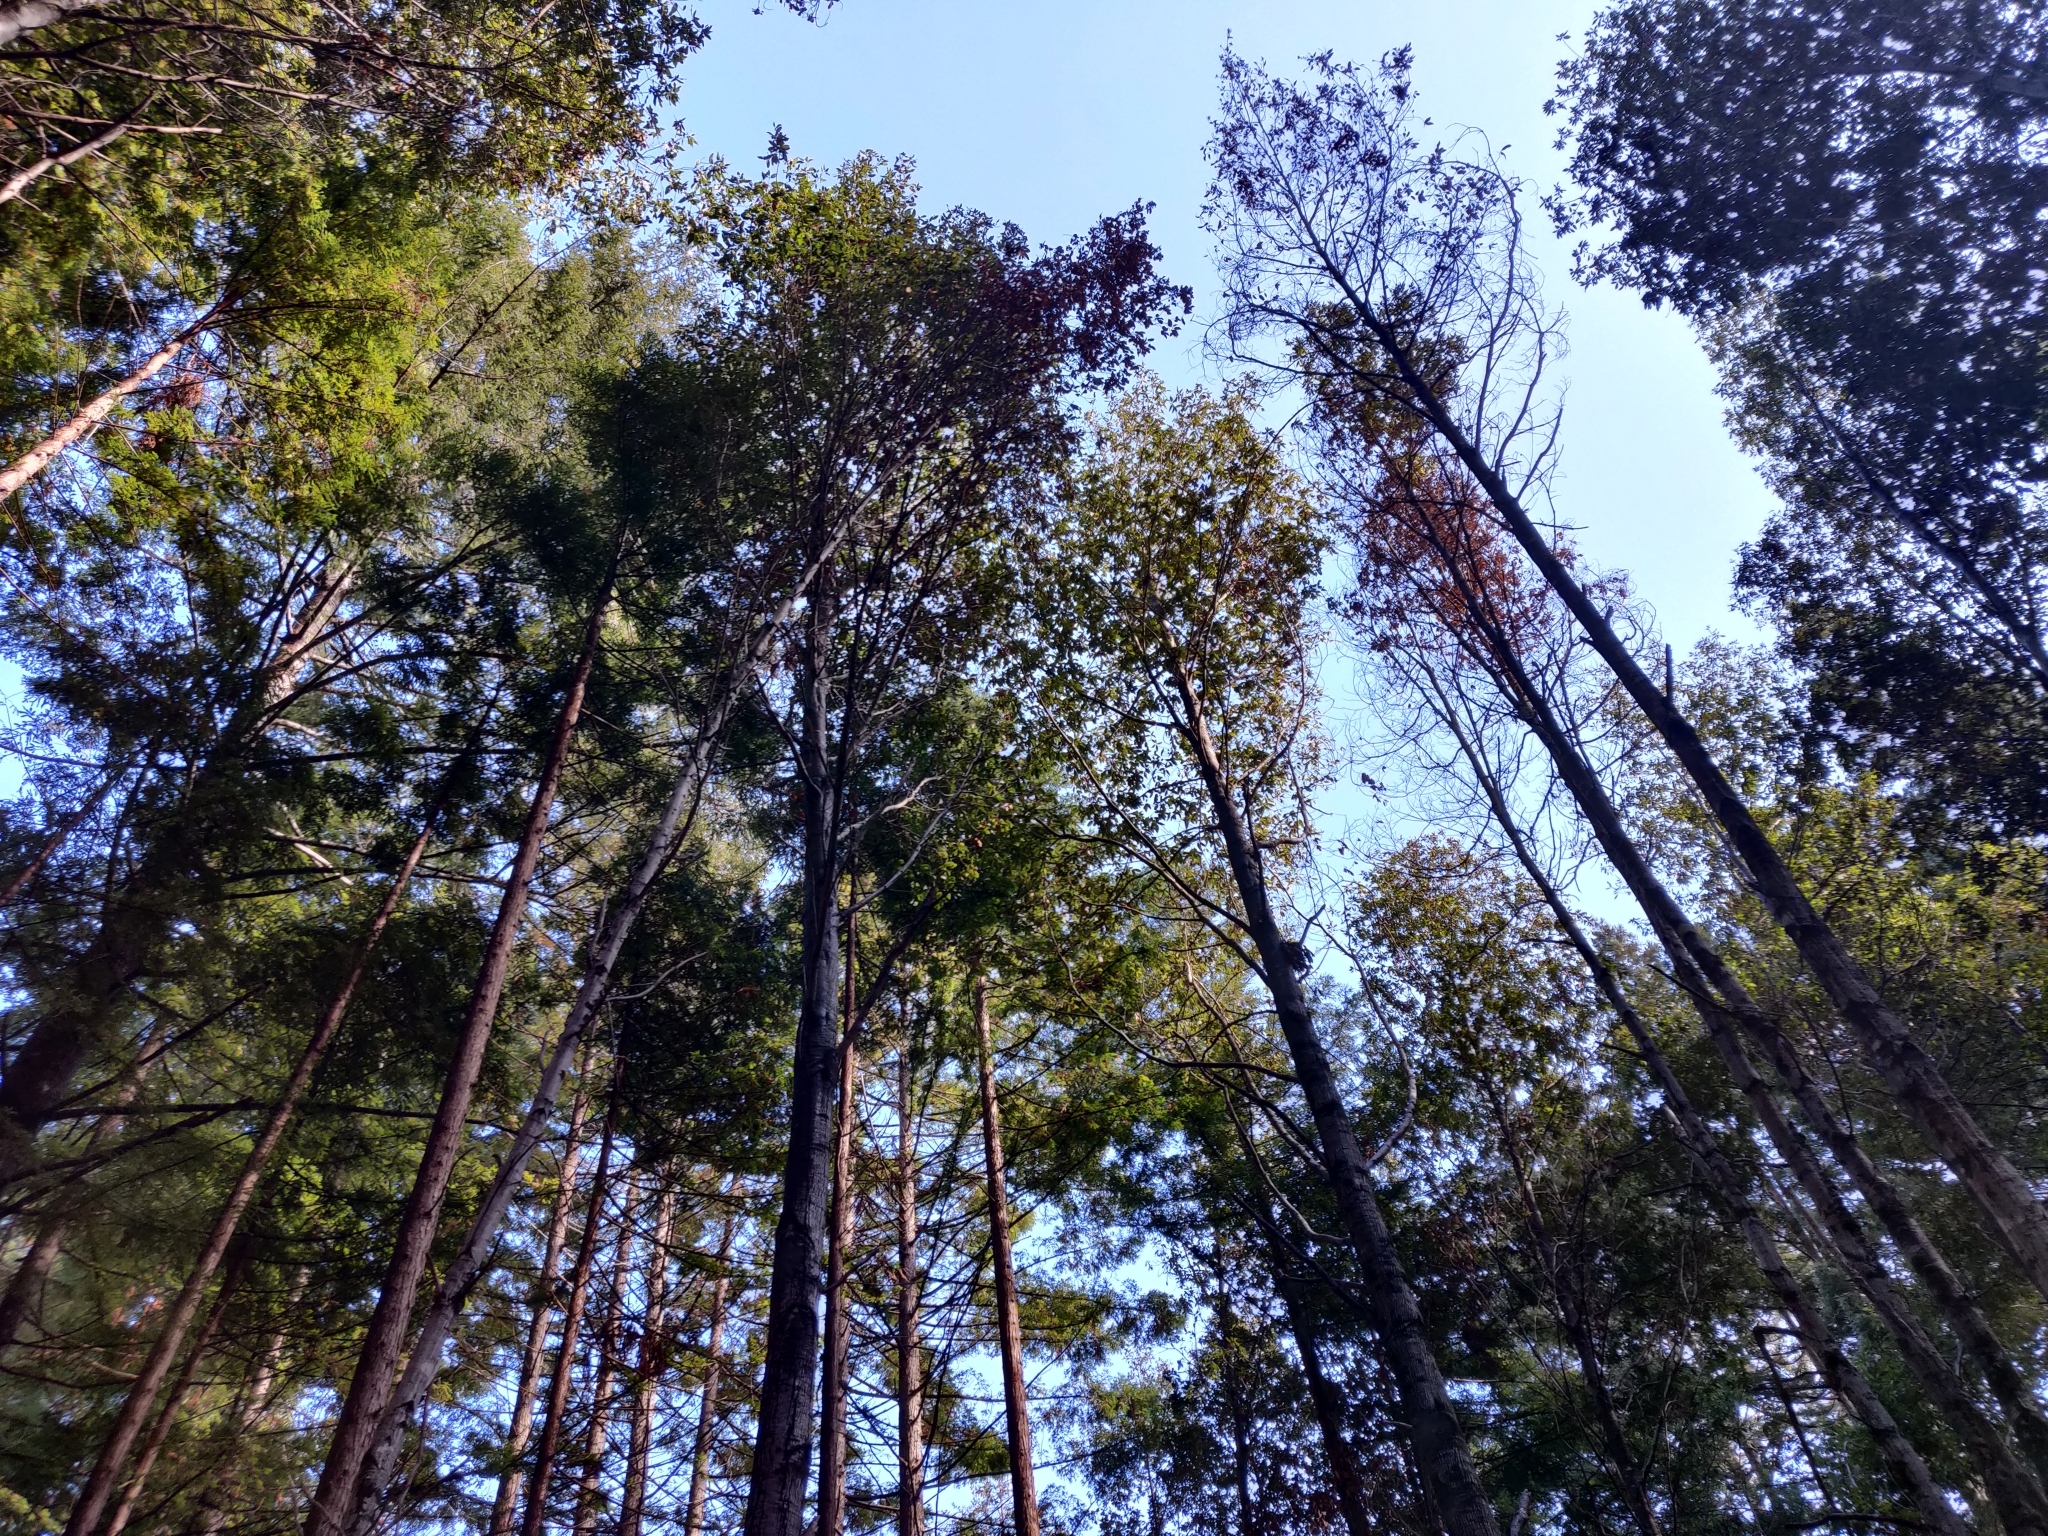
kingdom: Plantae
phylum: Tracheophyta
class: Magnoliopsida
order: Fagales
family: Fagaceae
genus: Notholithocarpus
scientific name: Notholithocarpus densiflorus
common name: Tan bark oak
